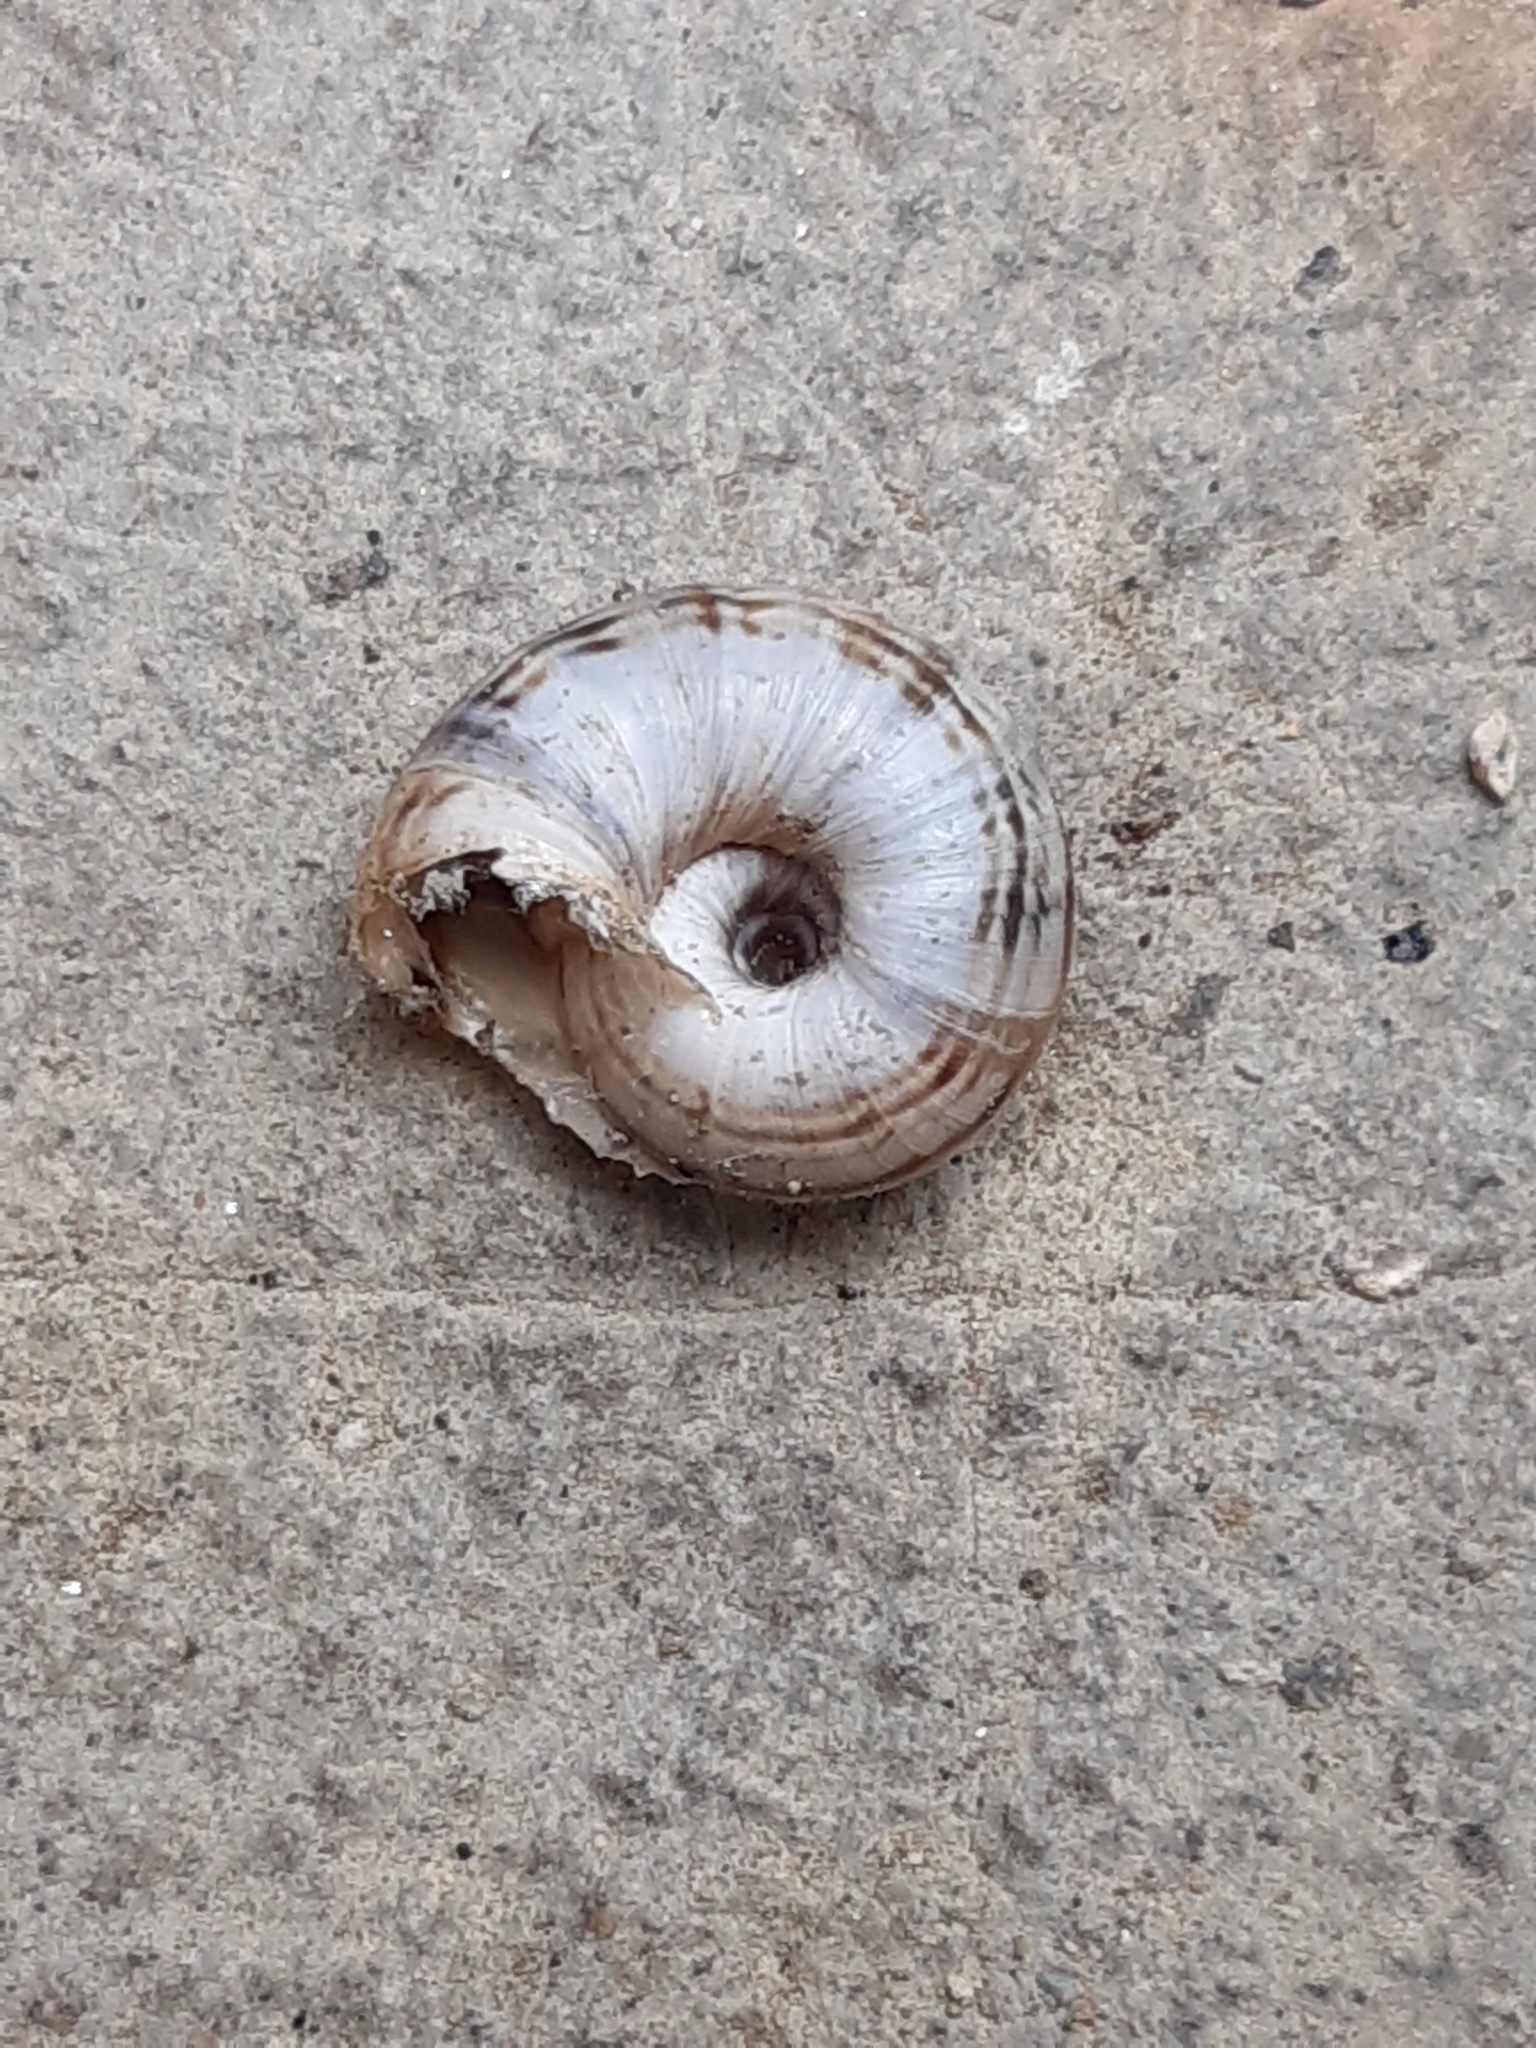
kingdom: Animalia
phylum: Mollusca
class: Gastropoda
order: Stylommatophora
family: Geomitridae
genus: Xerolenta
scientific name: Xerolenta obvia
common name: White heath snail
